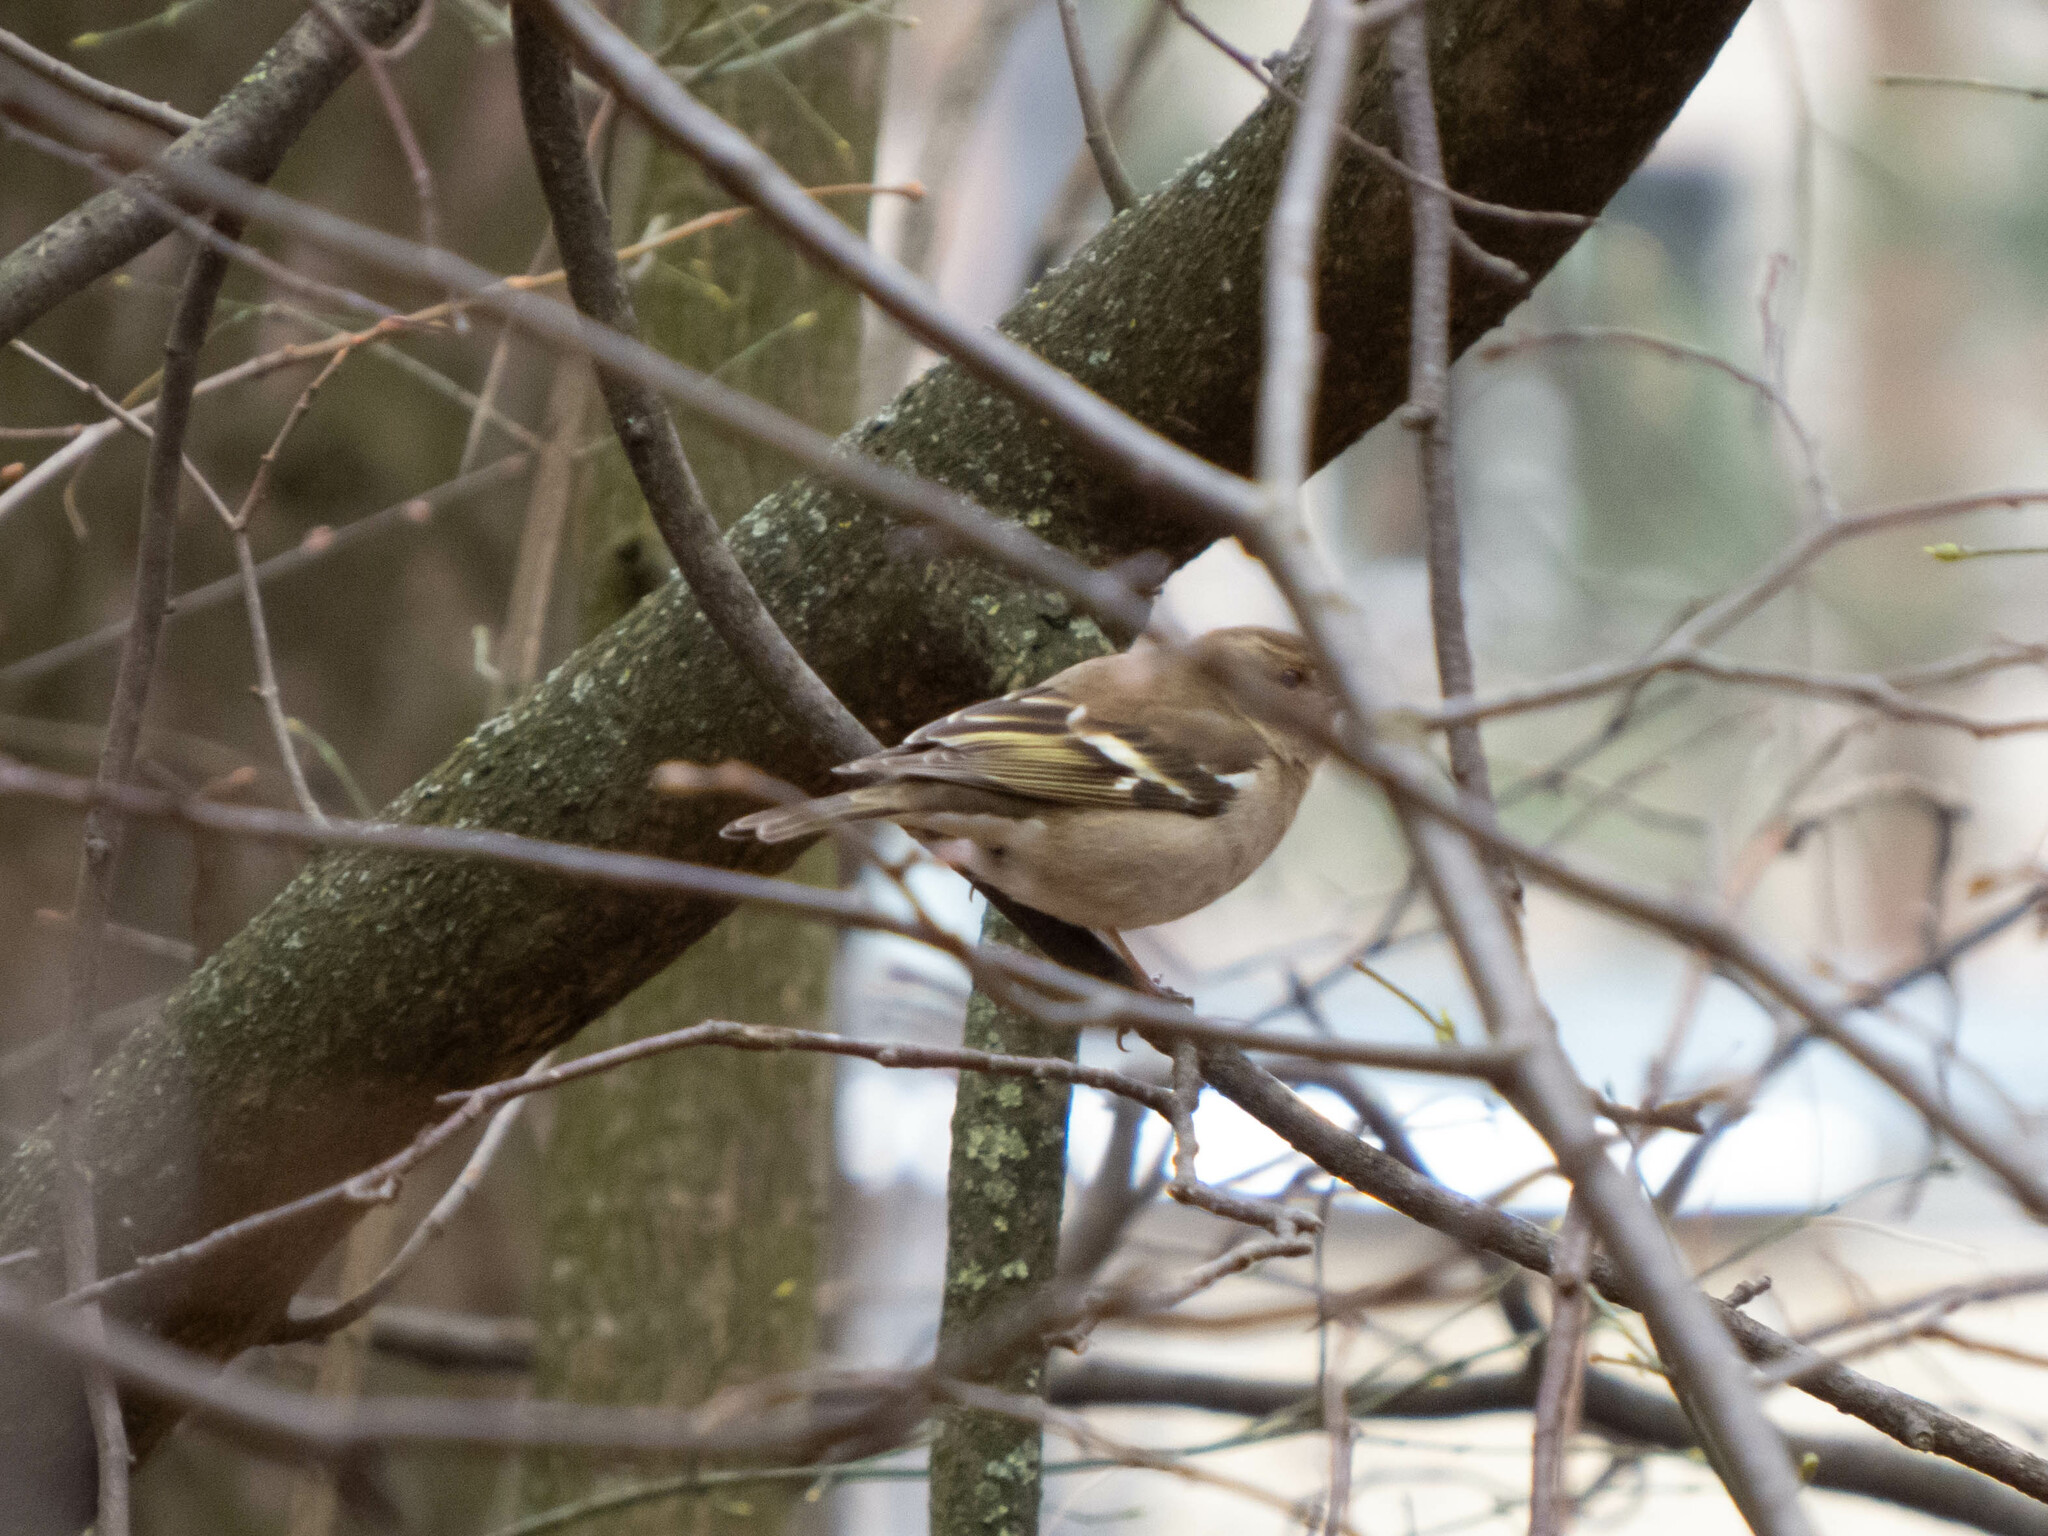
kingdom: Animalia
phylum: Chordata
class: Aves
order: Passeriformes
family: Fringillidae
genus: Fringilla
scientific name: Fringilla coelebs
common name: Common chaffinch
